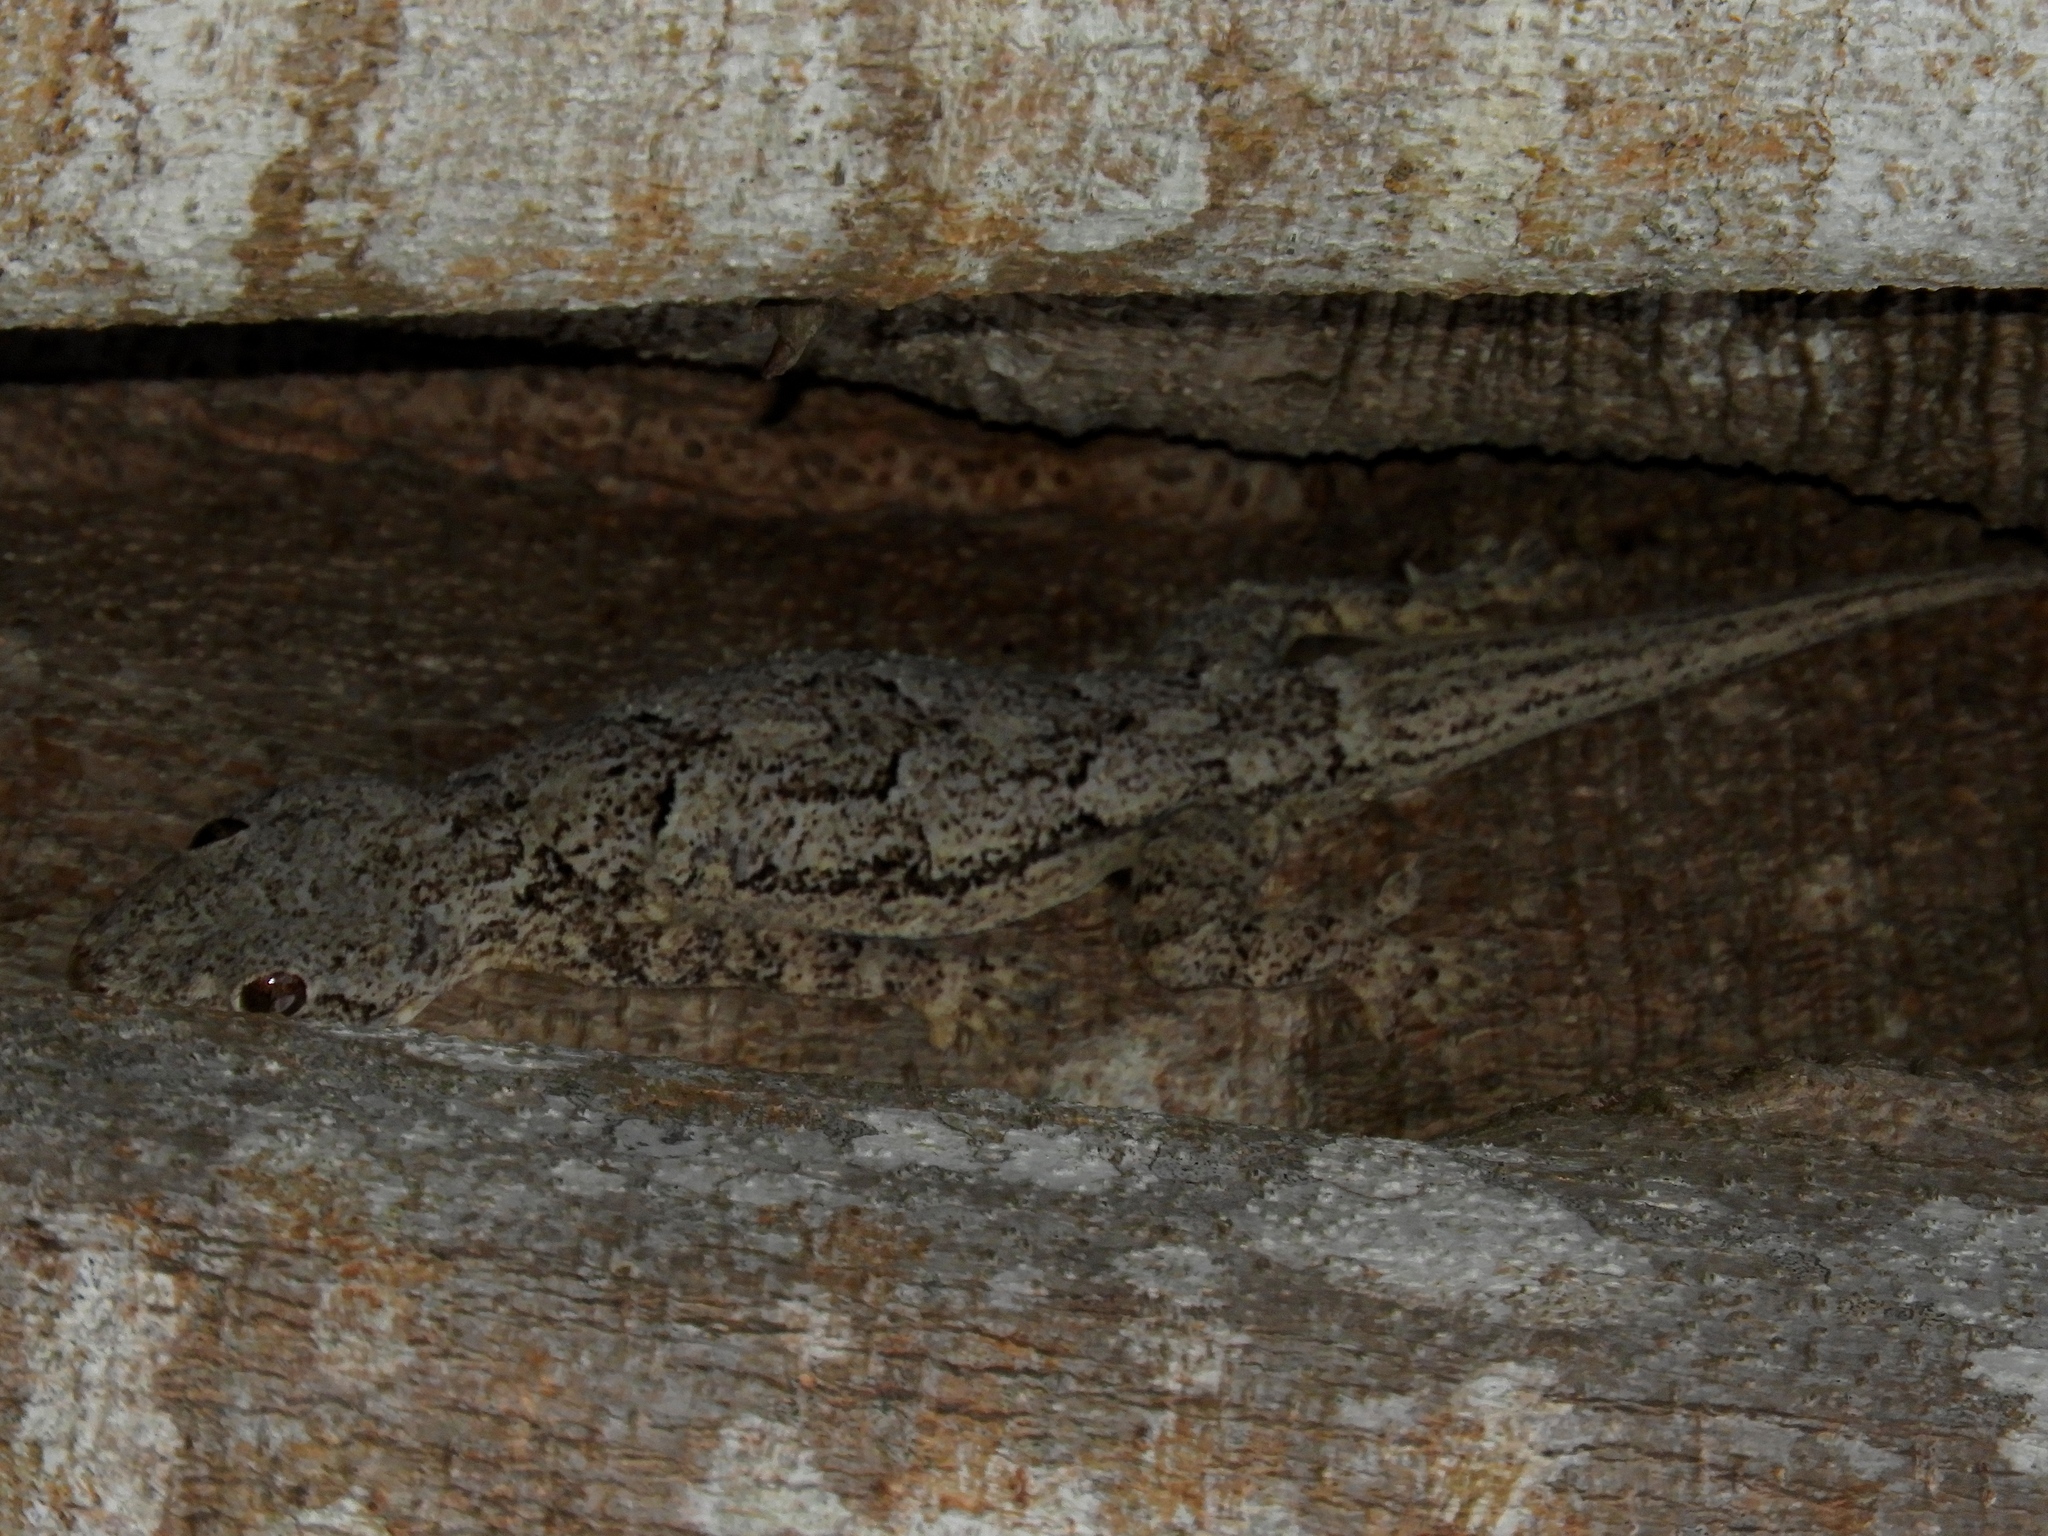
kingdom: Animalia
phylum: Chordata
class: Squamata
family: Gekkonidae
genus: Hemidactylus
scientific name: Hemidactylus platycephalus
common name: Baobab gecko
